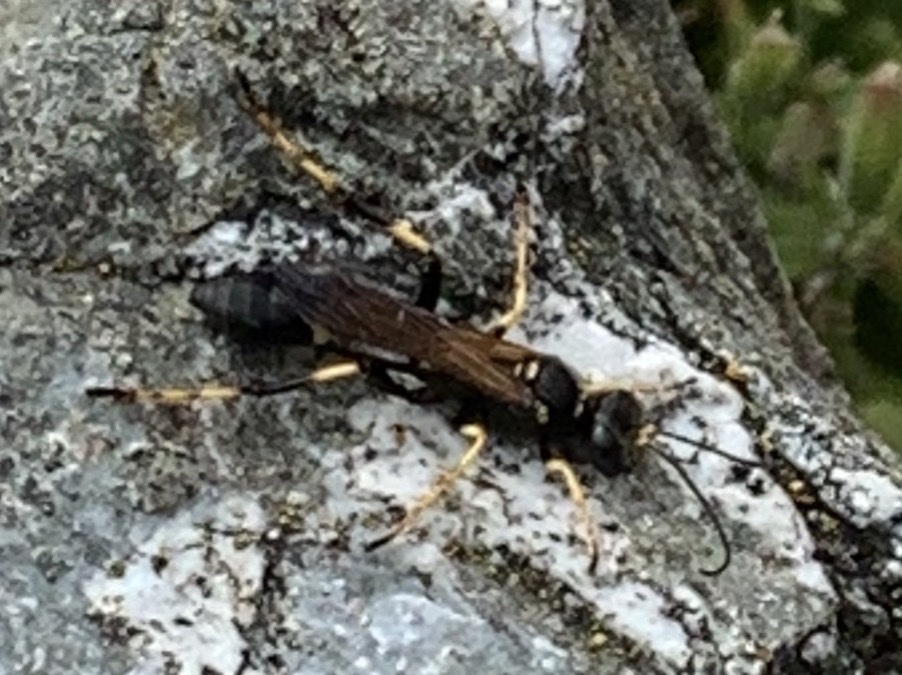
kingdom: Animalia
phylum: Arthropoda
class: Insecta
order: Hymenoptera
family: Sphecidae
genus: Sceliphron
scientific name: Sceliphron caementarium
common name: Mud dauber
